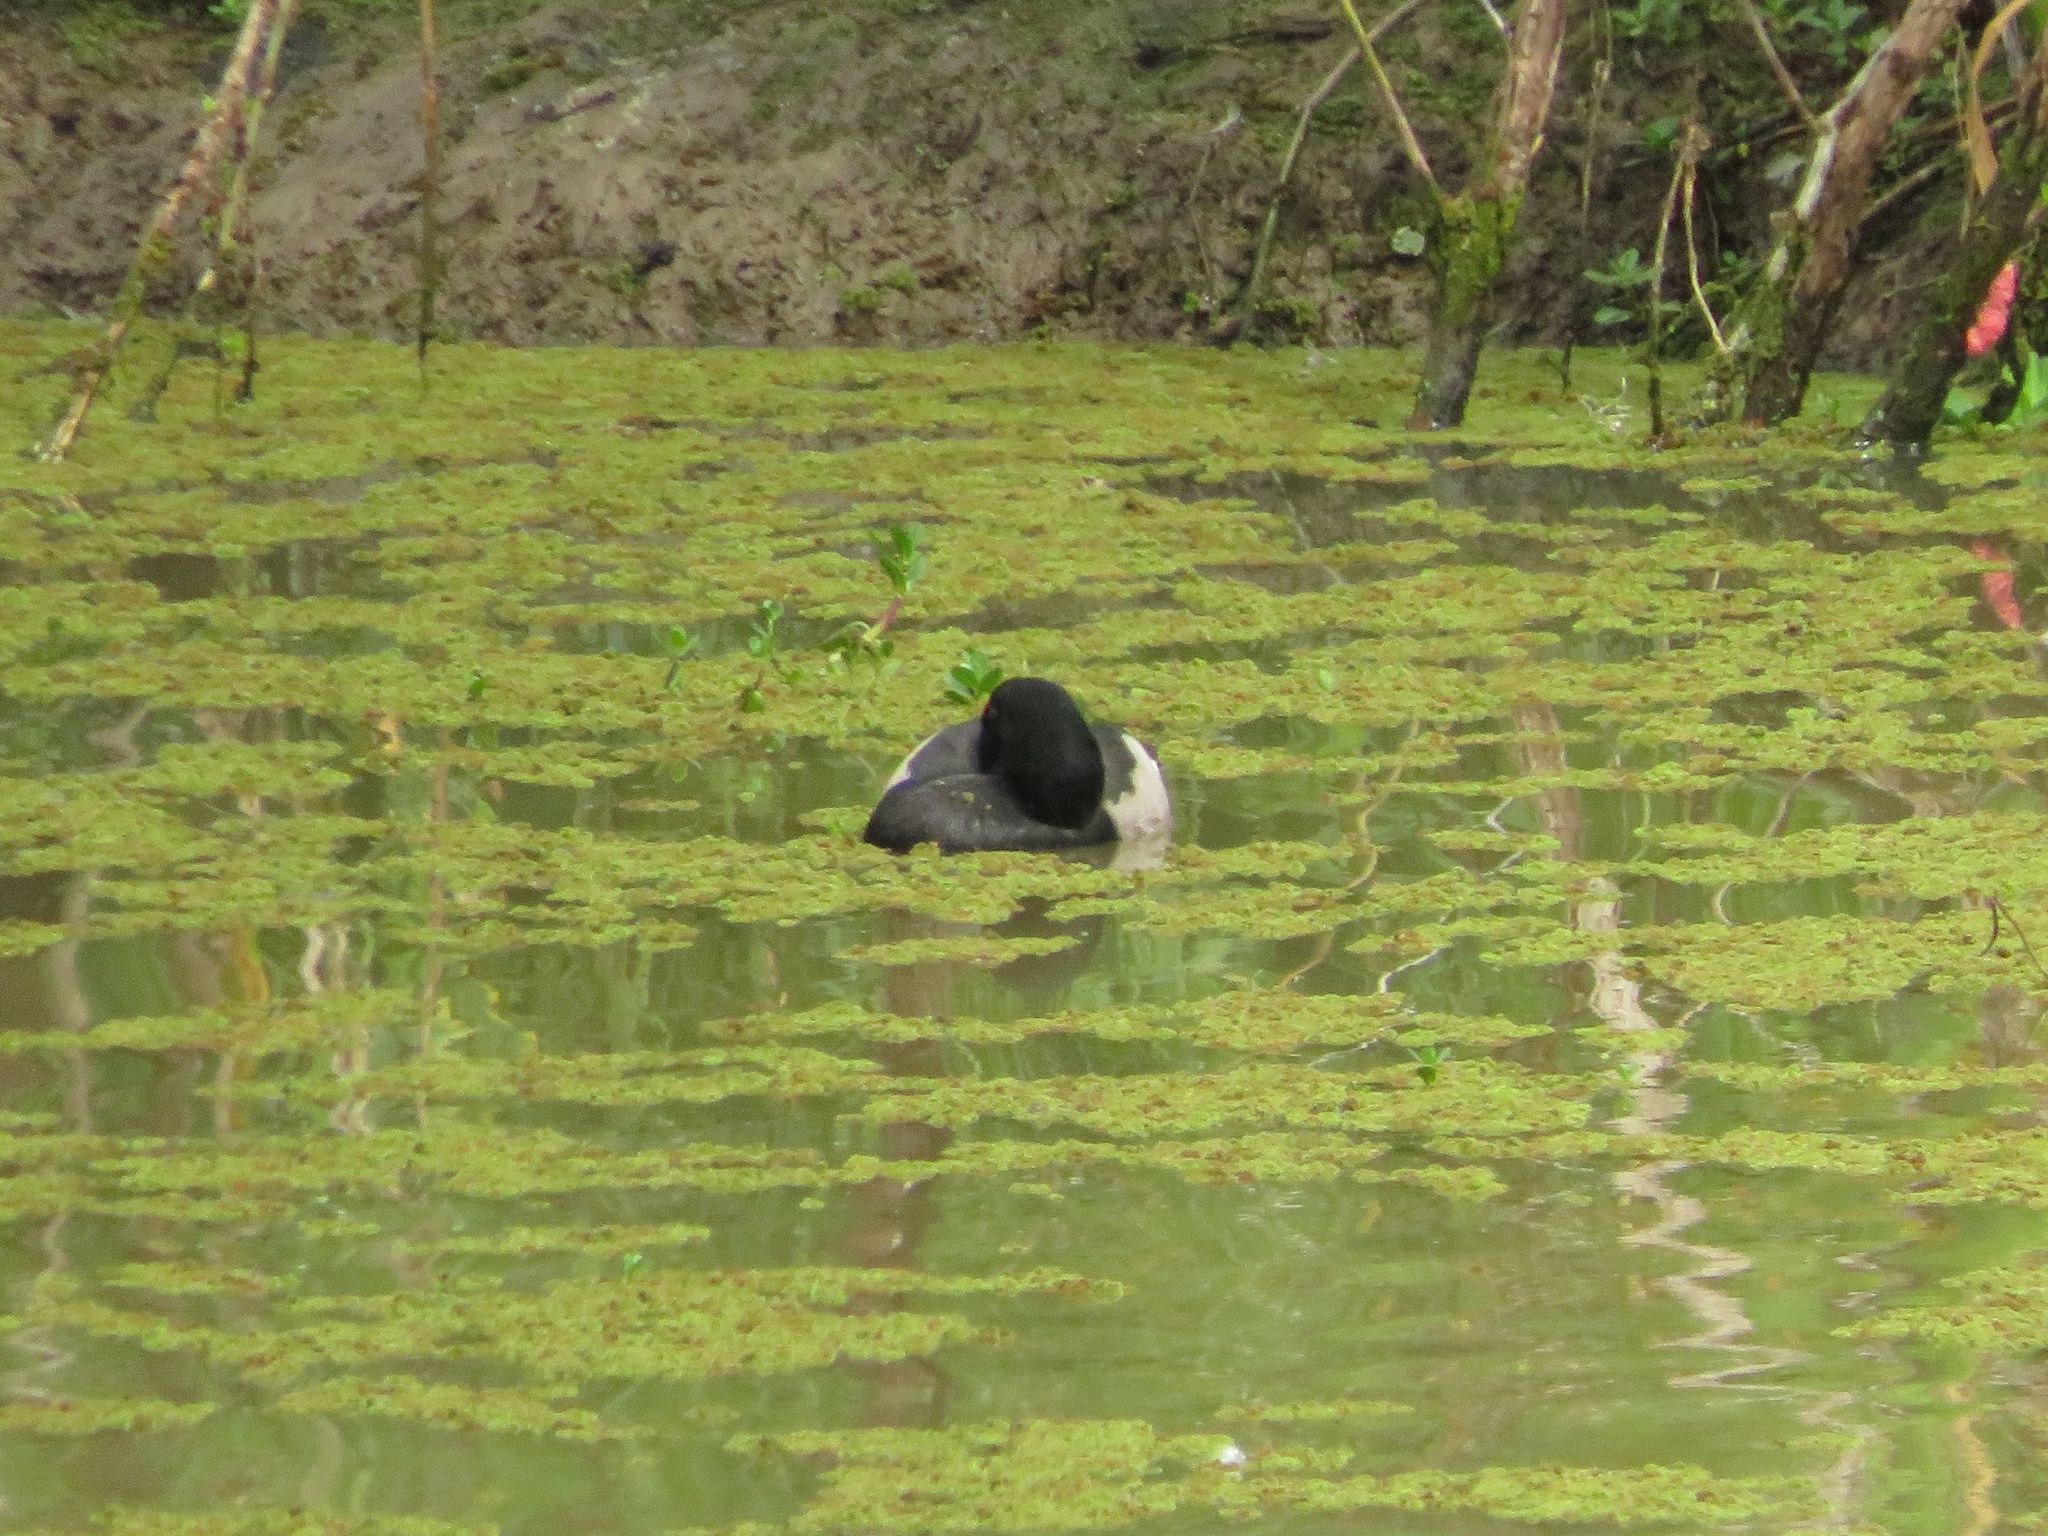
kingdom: Animalia
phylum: Chordata
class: Aves
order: Anseriformes
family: Anatidae
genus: Netta
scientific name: Netta peposaca
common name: Rosy-billed pochard
